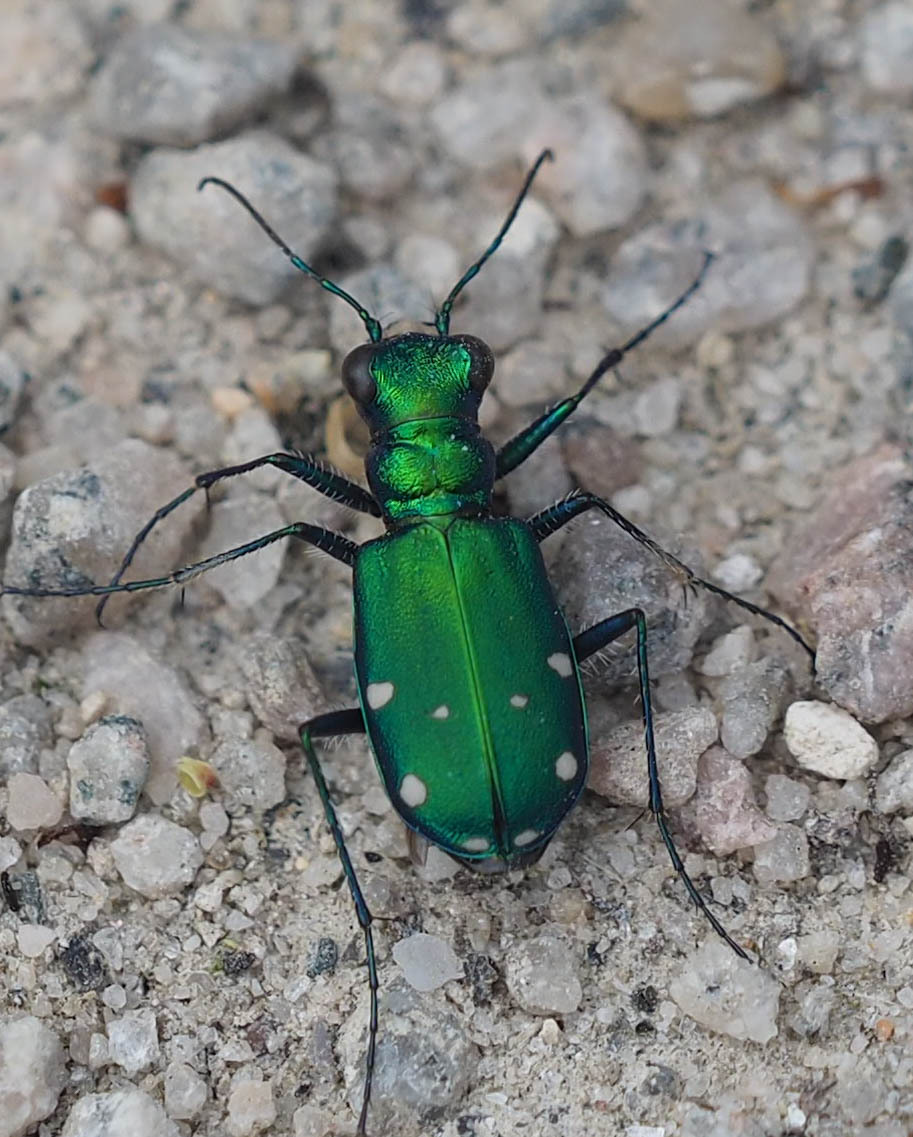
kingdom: Animalia
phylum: Arthropoda
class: Insecta
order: Coleoptera
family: Carabidae
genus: Cicindela
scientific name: Cicindela sexguttata
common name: Six-spotted tiger beetle
